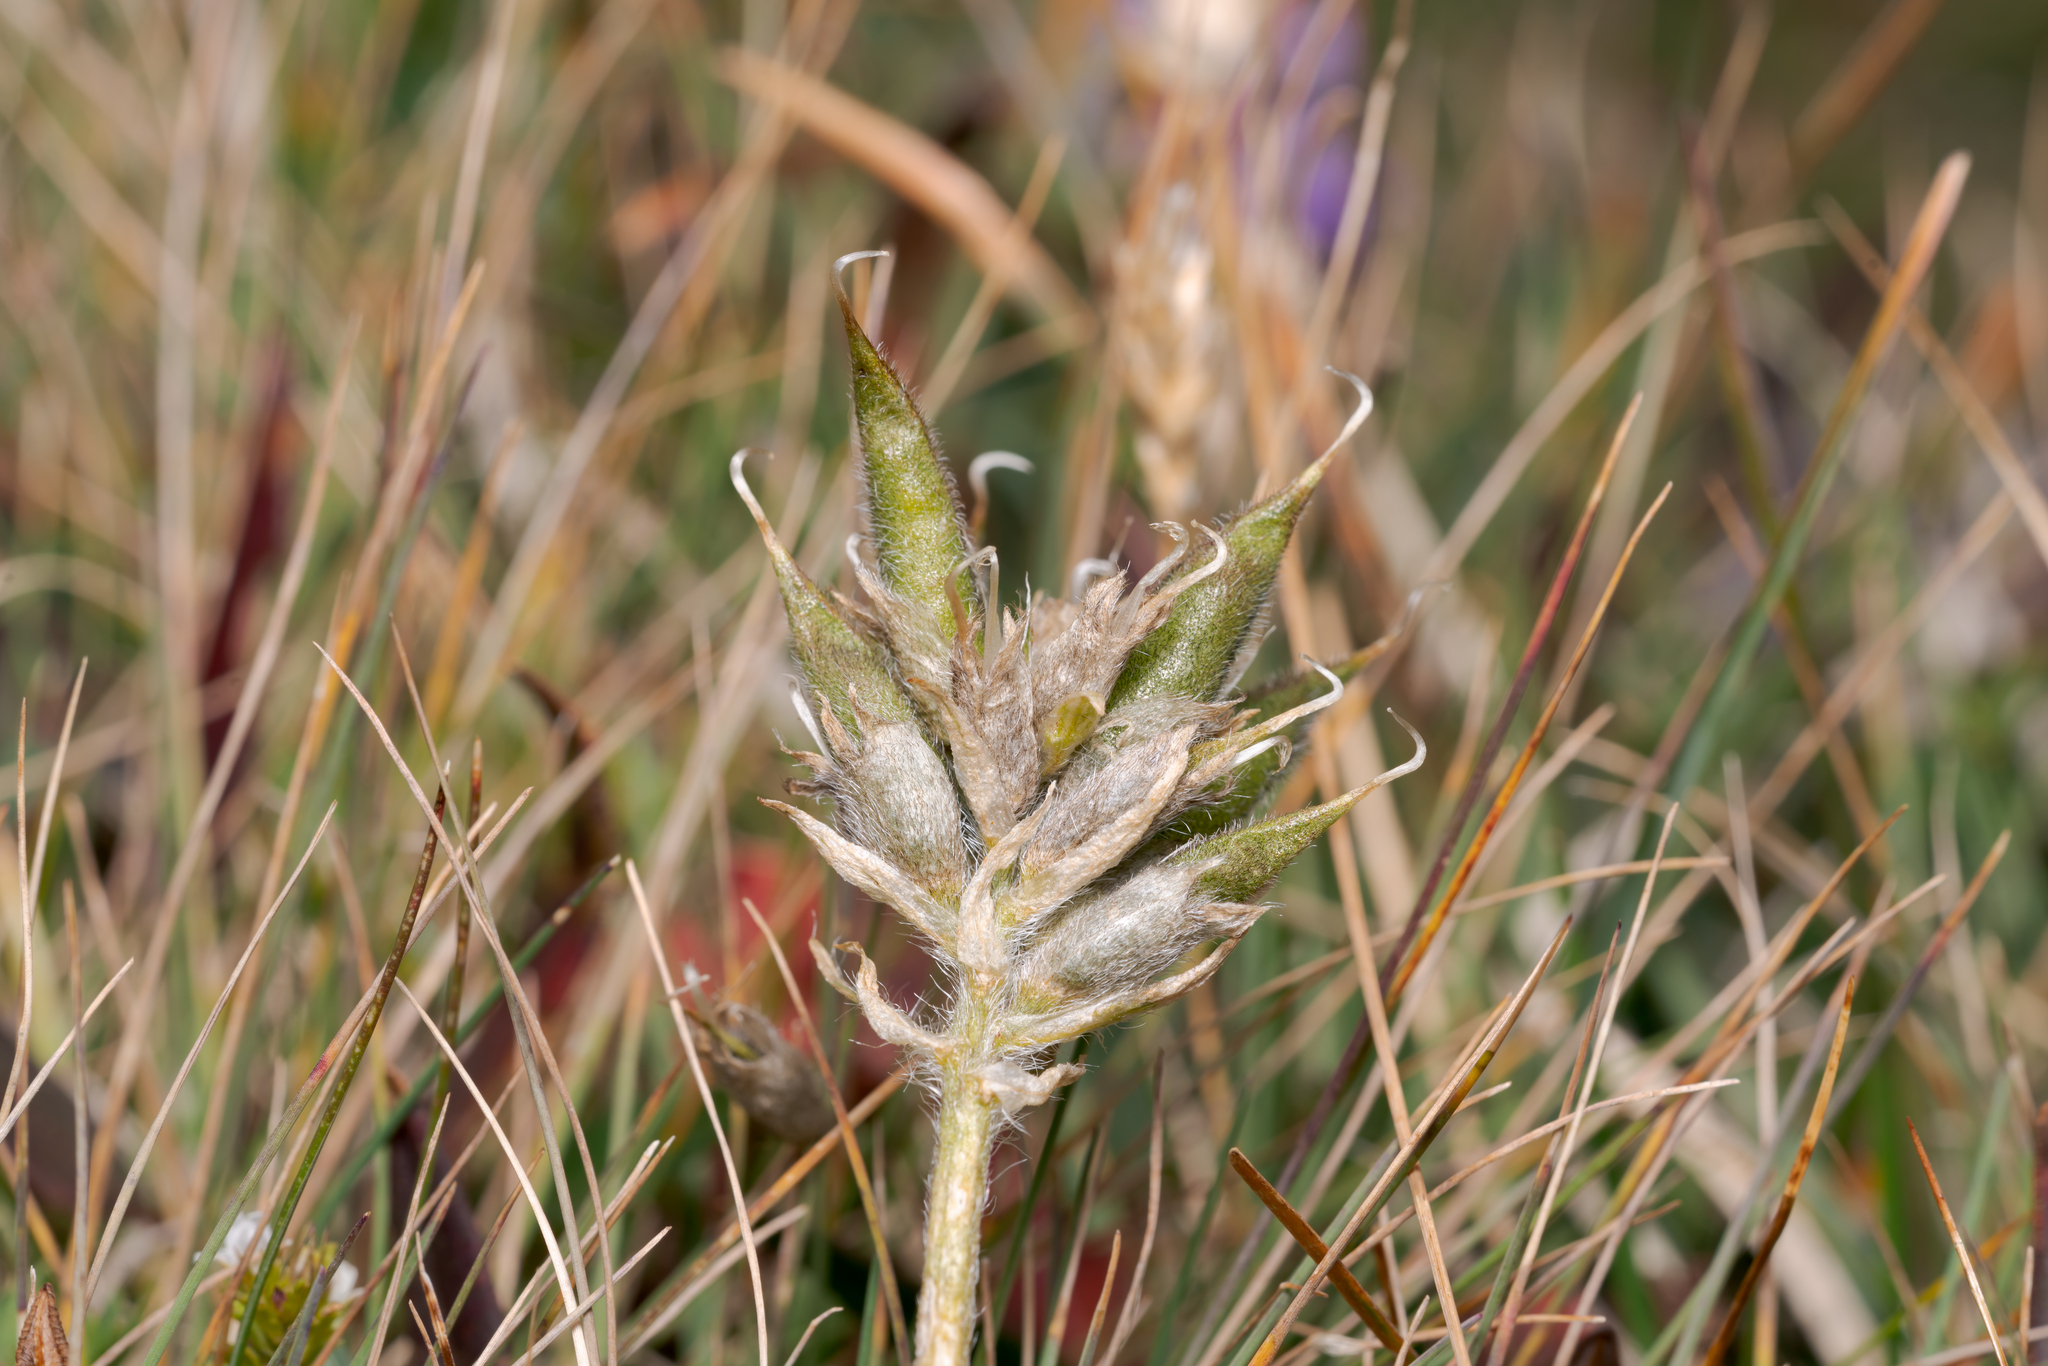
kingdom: Plantae
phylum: Tracheophyta
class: Magnoliopsida
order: Fabales
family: Fabaceae
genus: Oxytropis
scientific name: Oxytropis campestris
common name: Field locoweed
